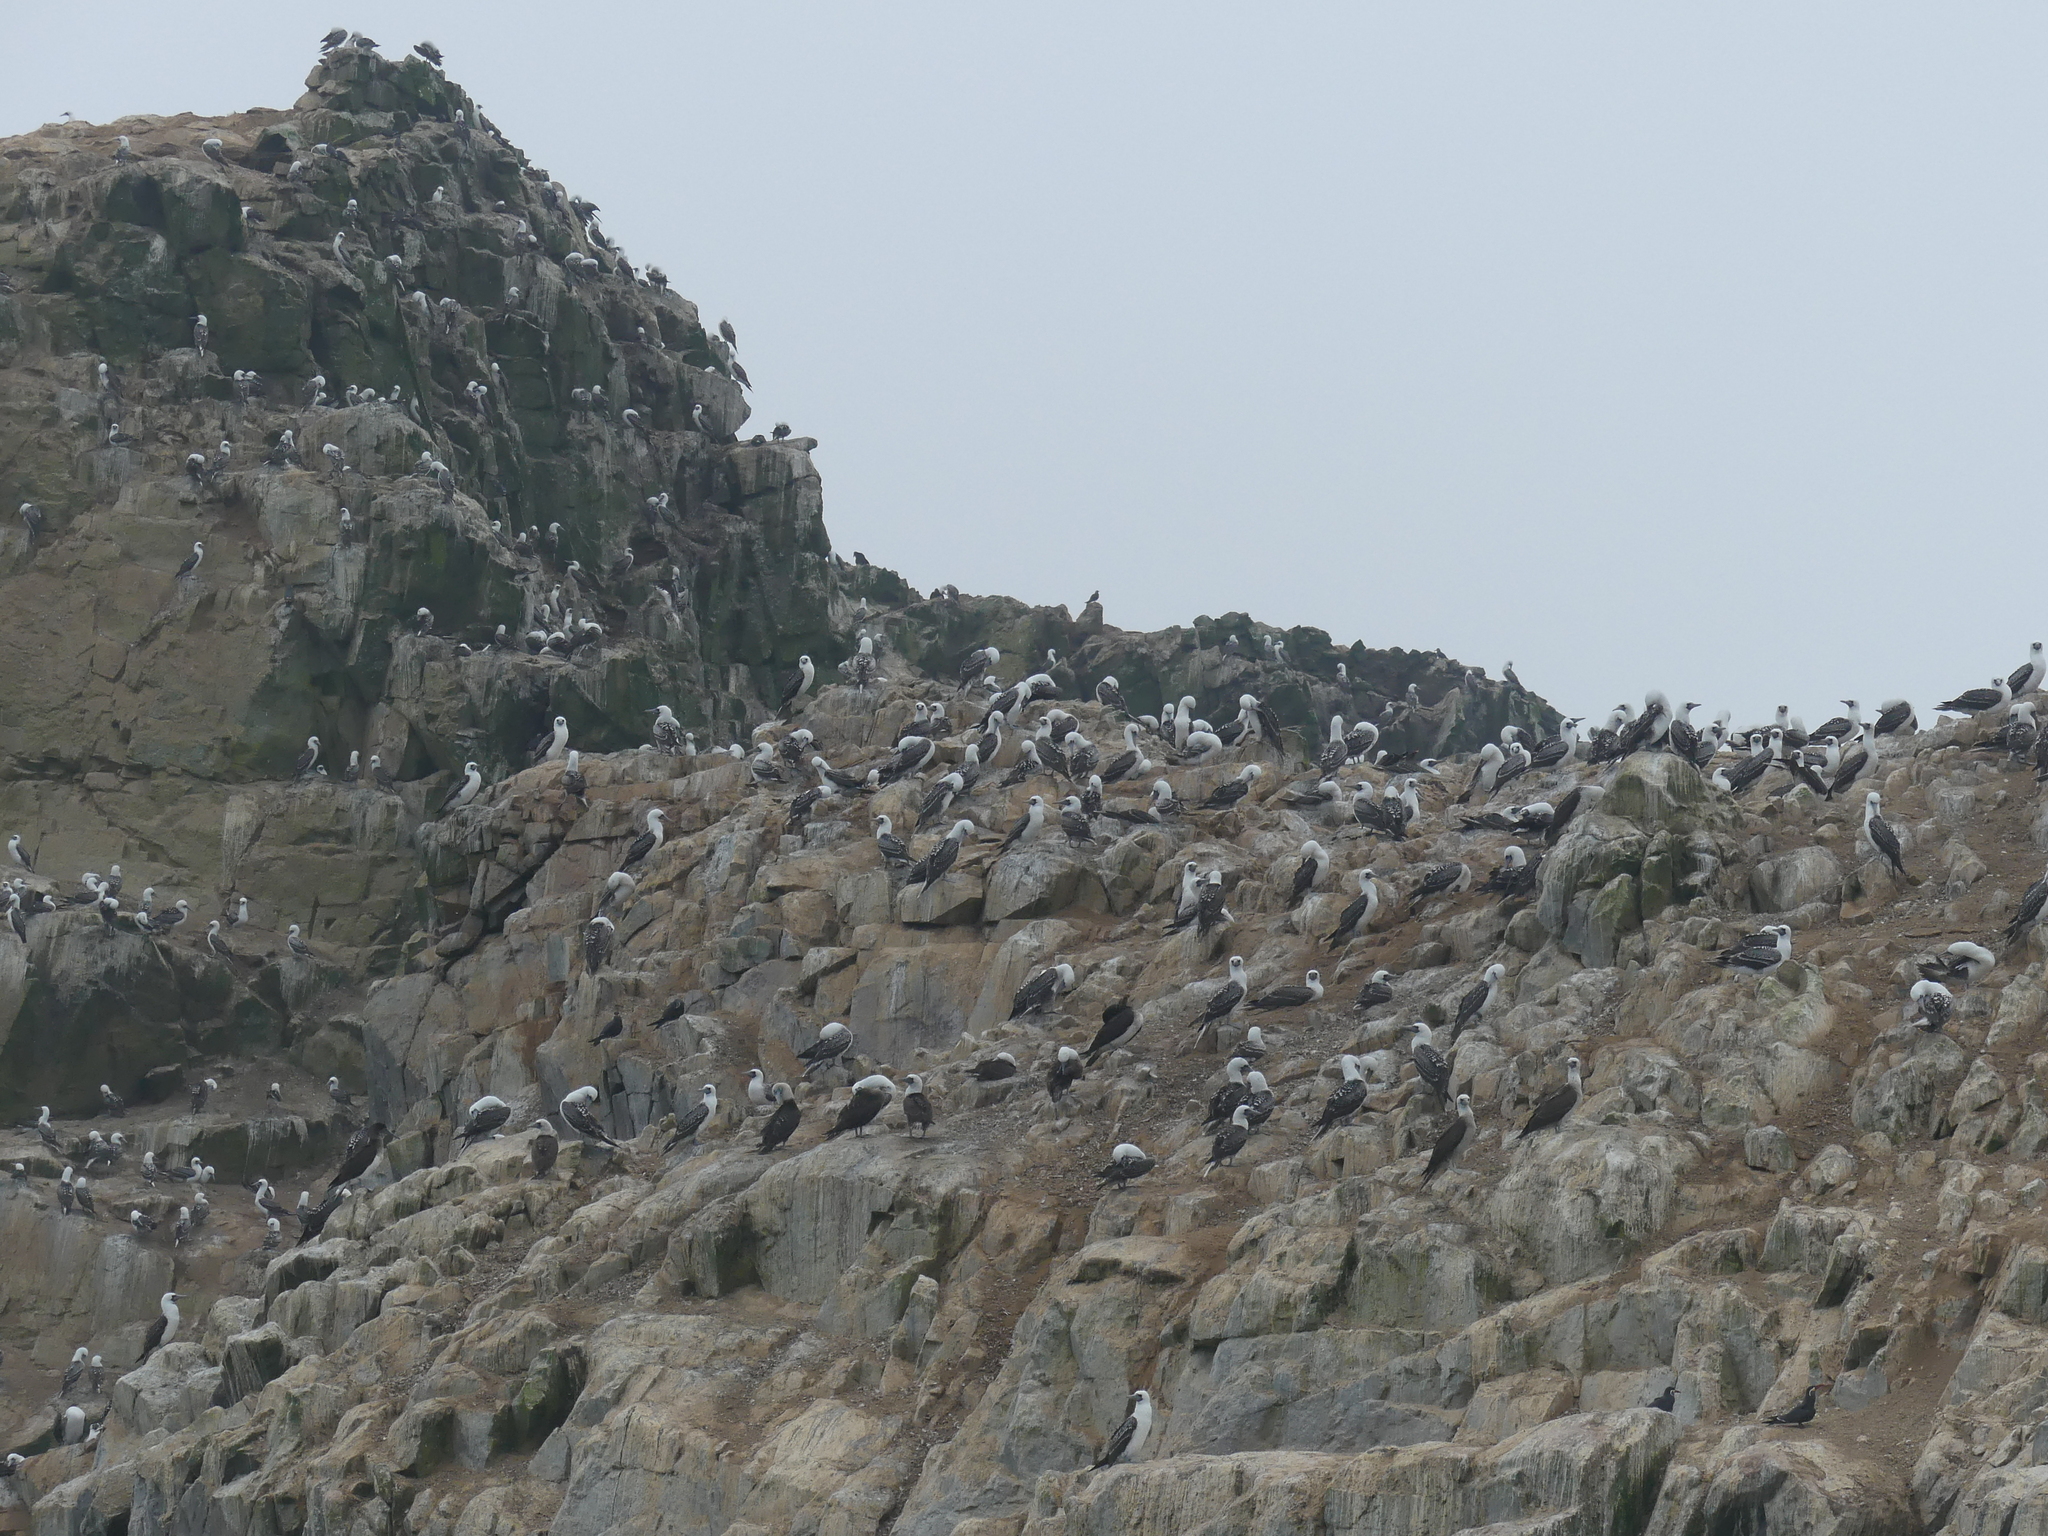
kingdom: Animalia
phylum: Chordata
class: Aves
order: Suliformes
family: Sulidae
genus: Sula
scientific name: Sula variegata
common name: Peruvian booby
